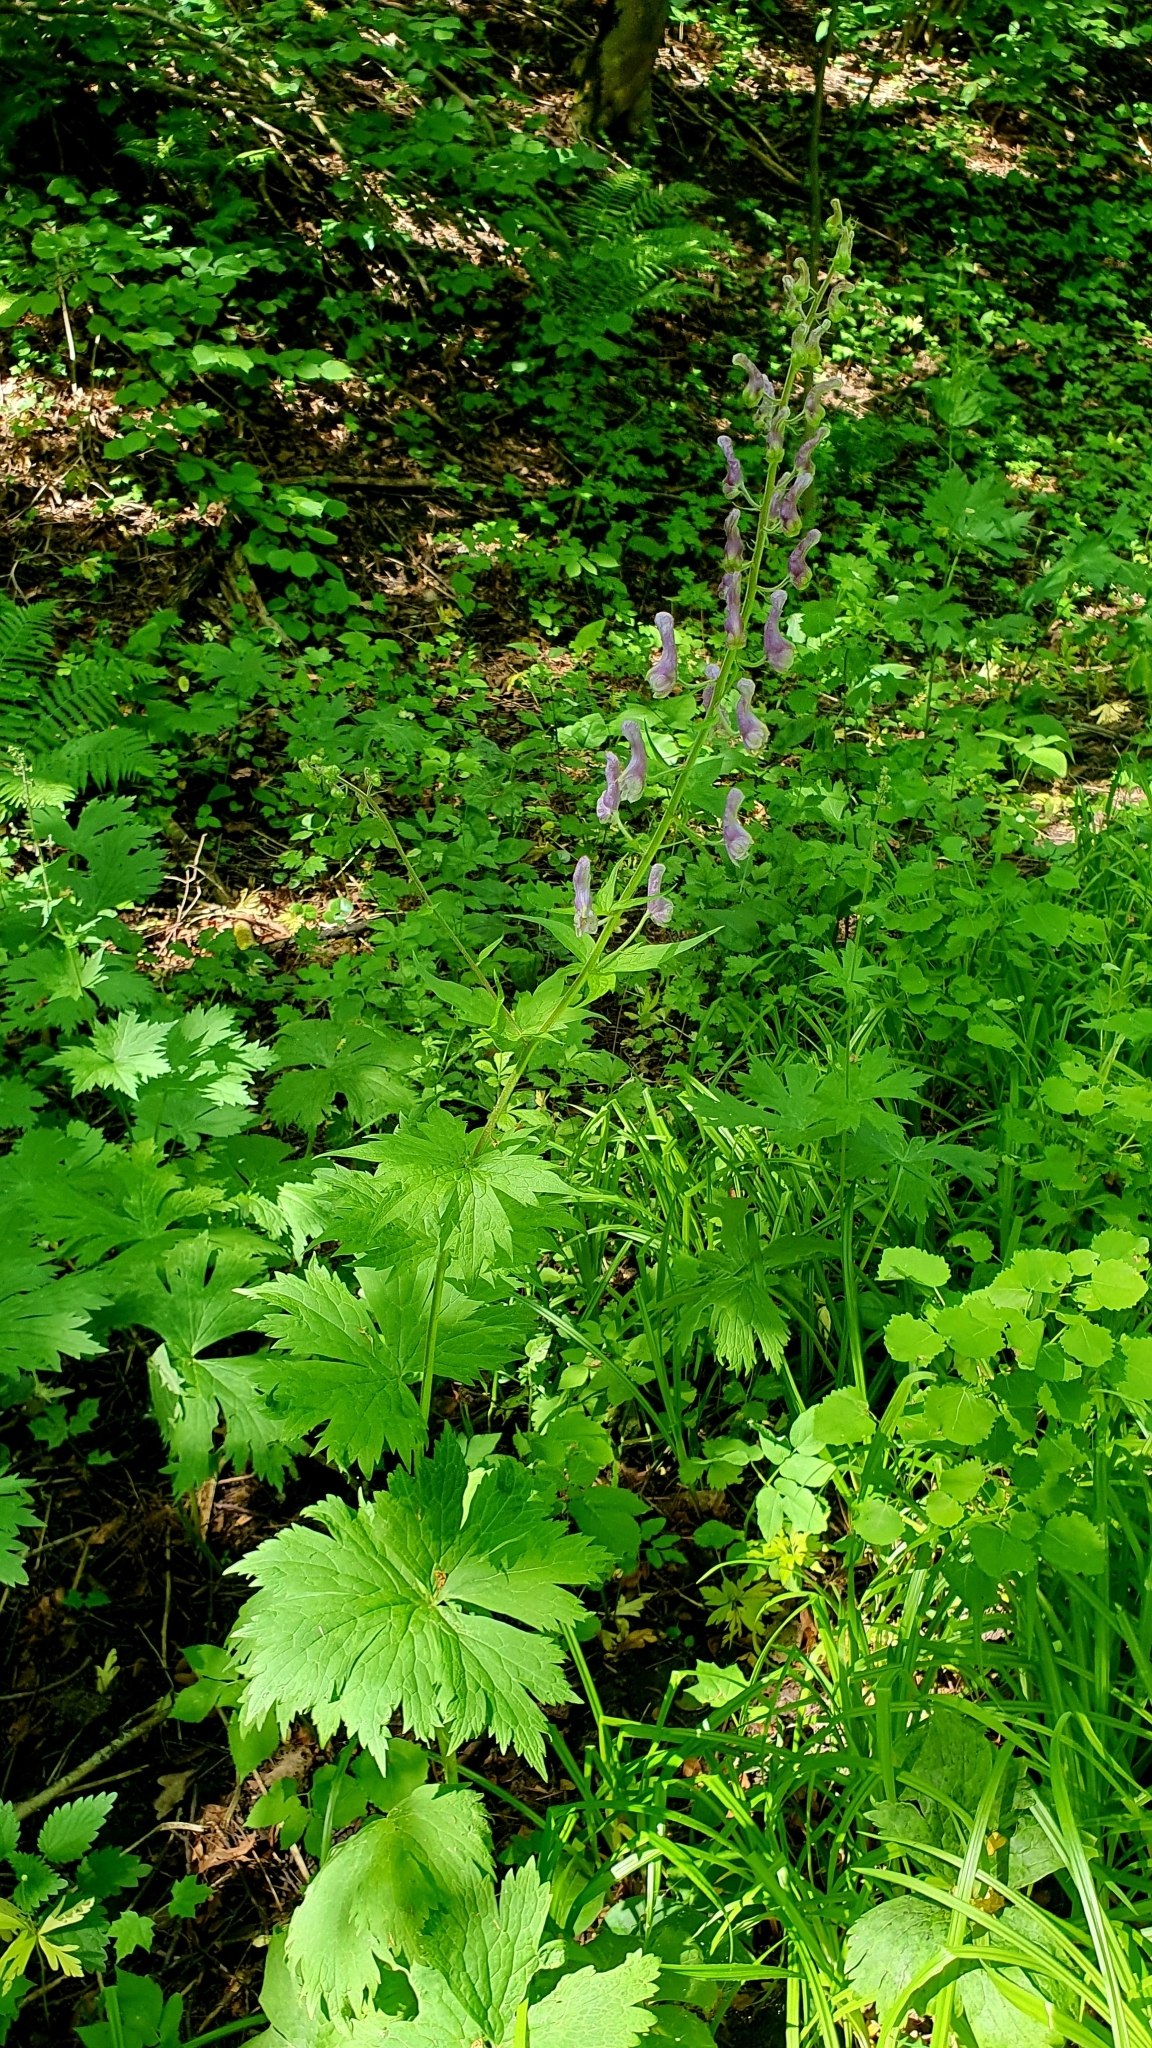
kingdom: Plantae
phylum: Tracheophyta
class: Magnoliopsida
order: Ranunculales
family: Ranunculaceae
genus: Aconitum
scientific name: Aconitum septentrionale
